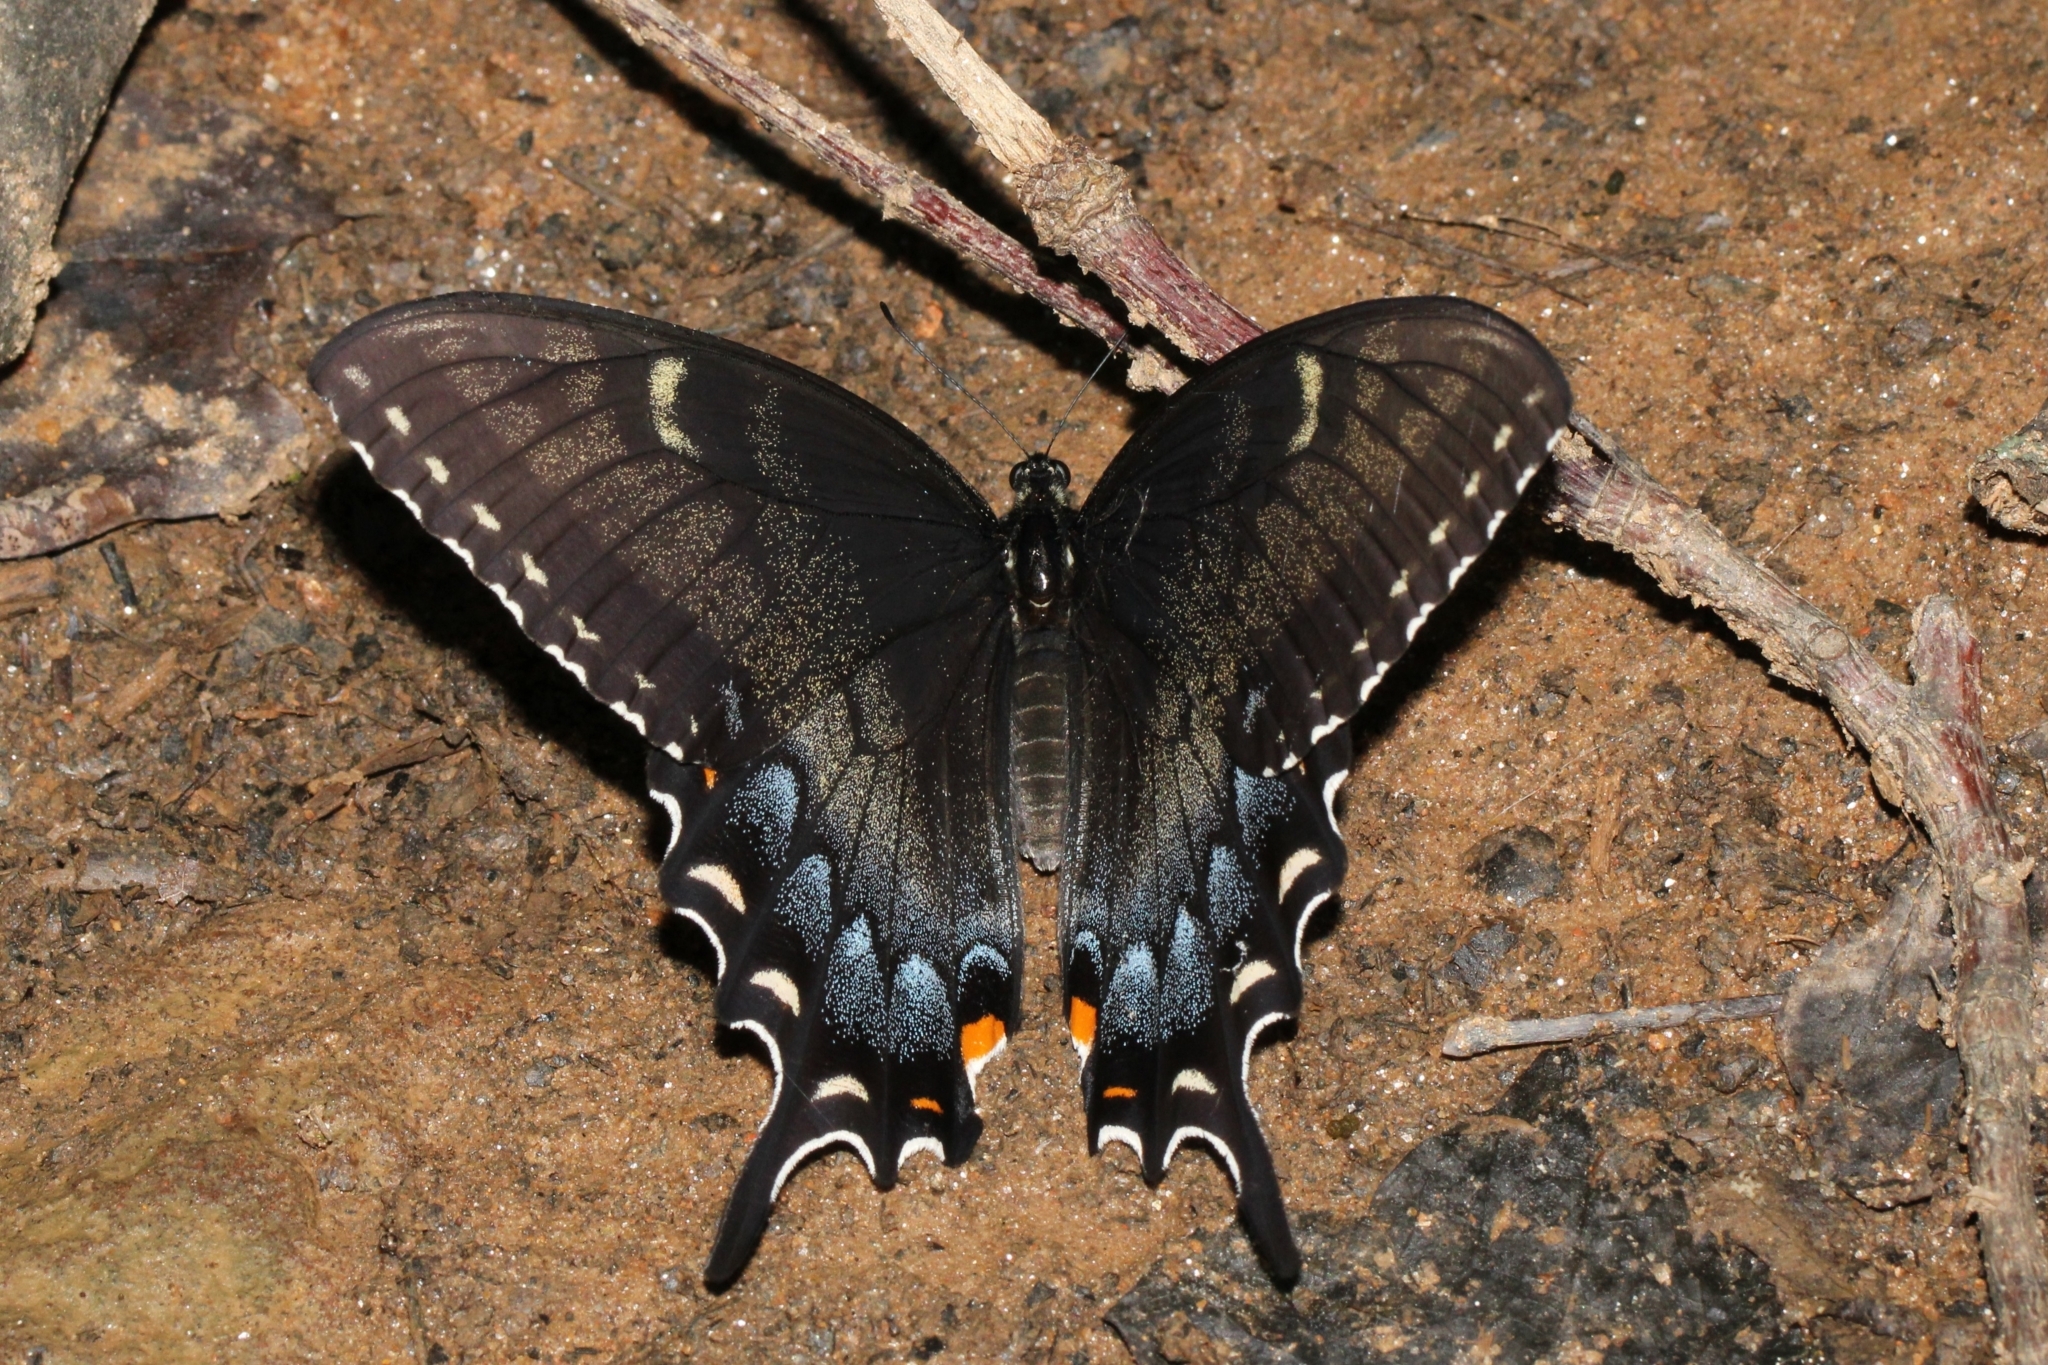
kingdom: Animalia
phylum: Arthropoda
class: Insecta
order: Lepidoptera
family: Papilionidae
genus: Papilio
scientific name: Papilio glaucus
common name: Tiger swallowtail
